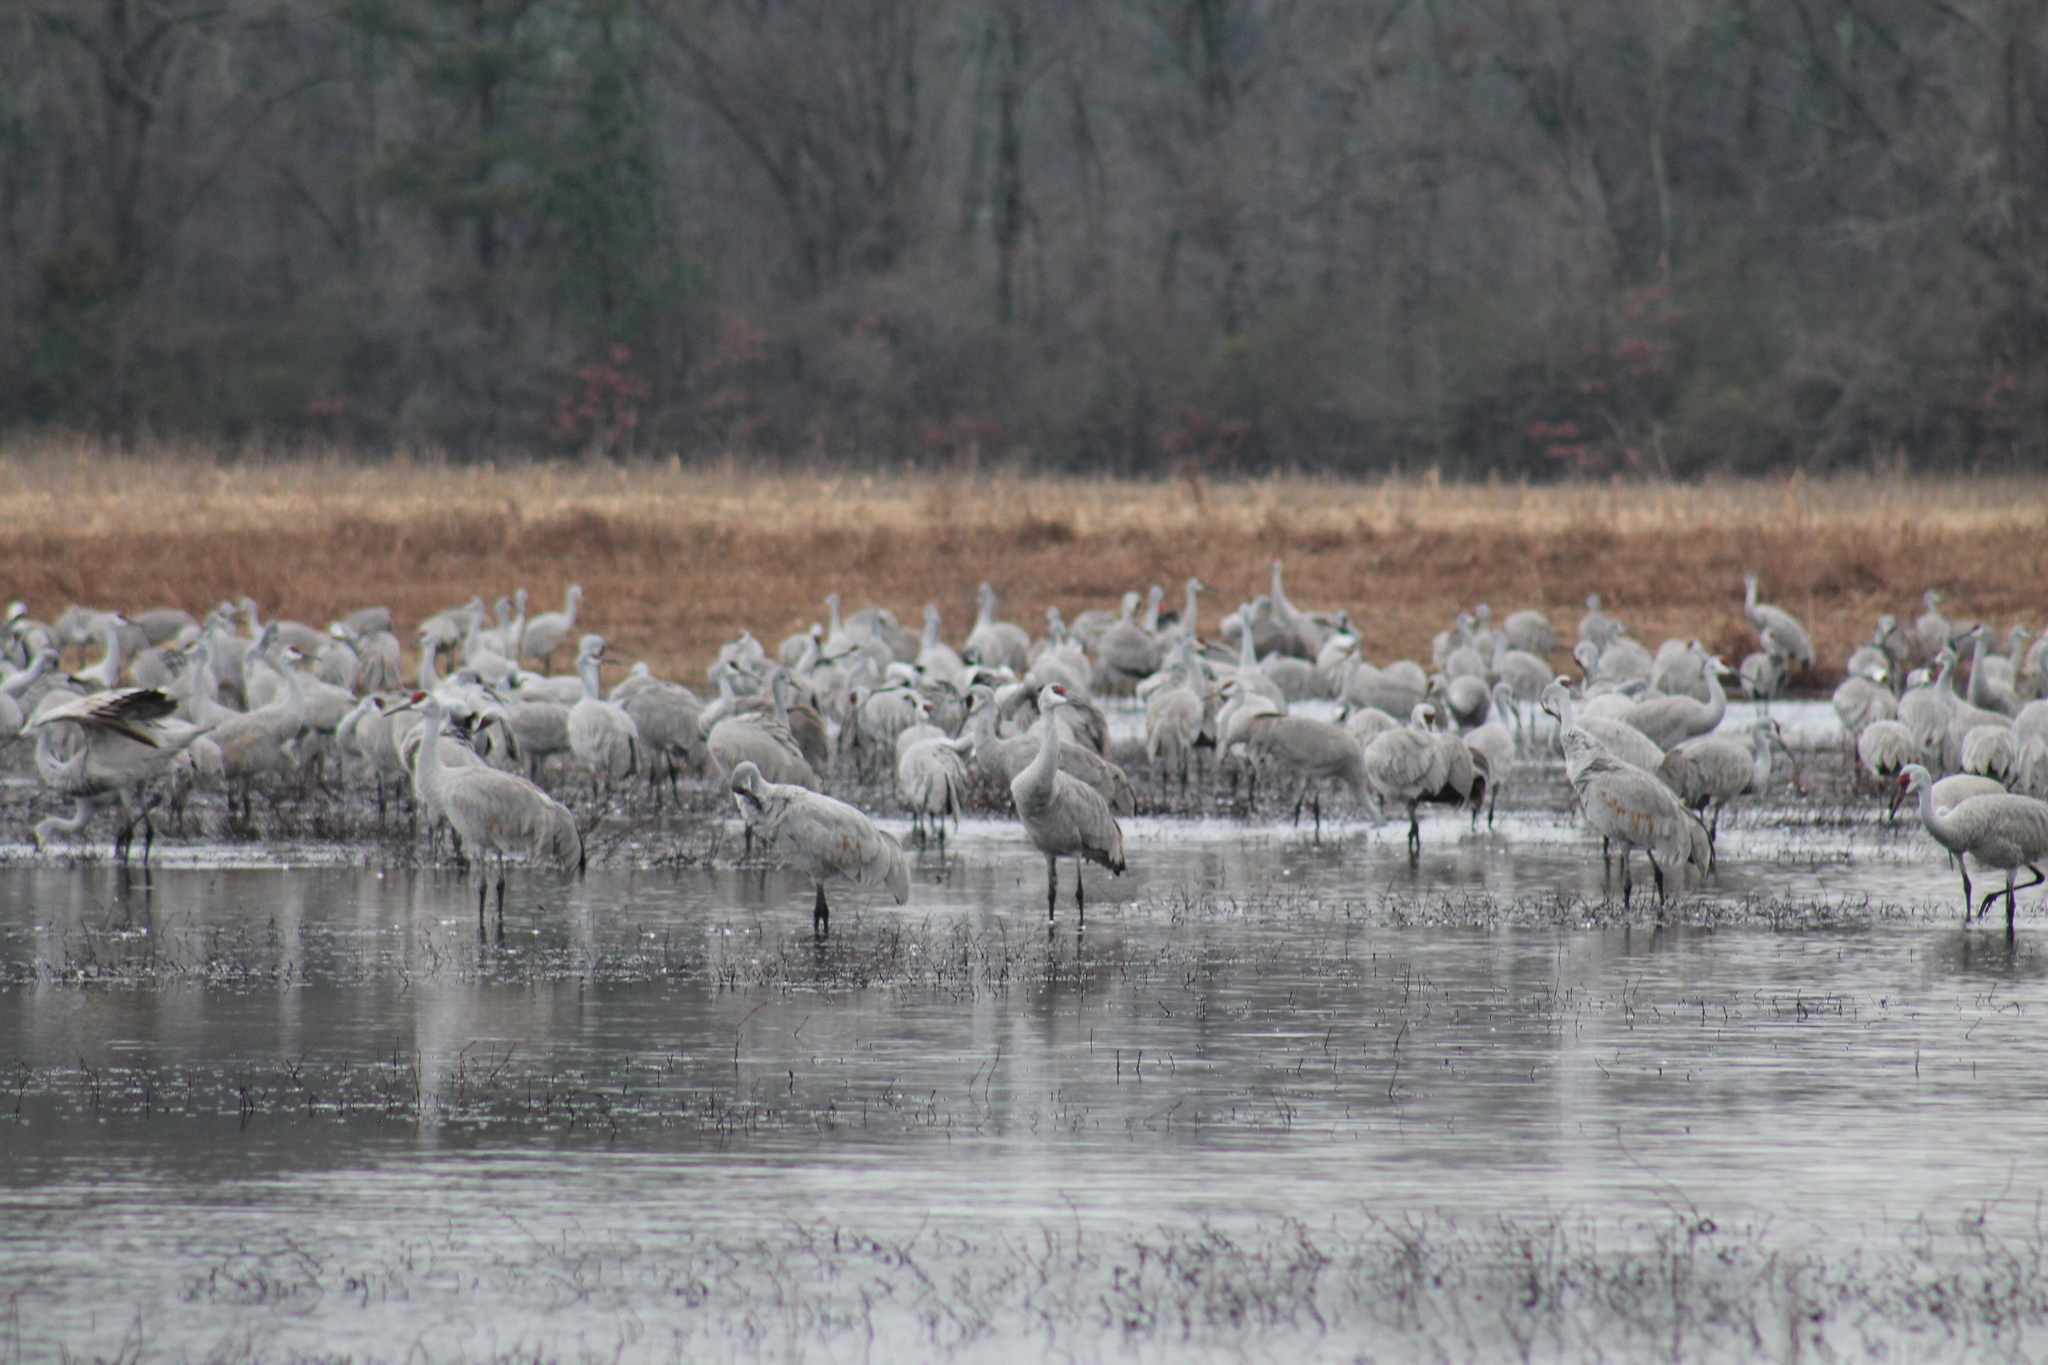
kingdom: Animalia
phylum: Chordata
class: Aves
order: Gruiformes
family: Gruidae
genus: Grus
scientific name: Grus canadensis
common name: Sandhill crane
